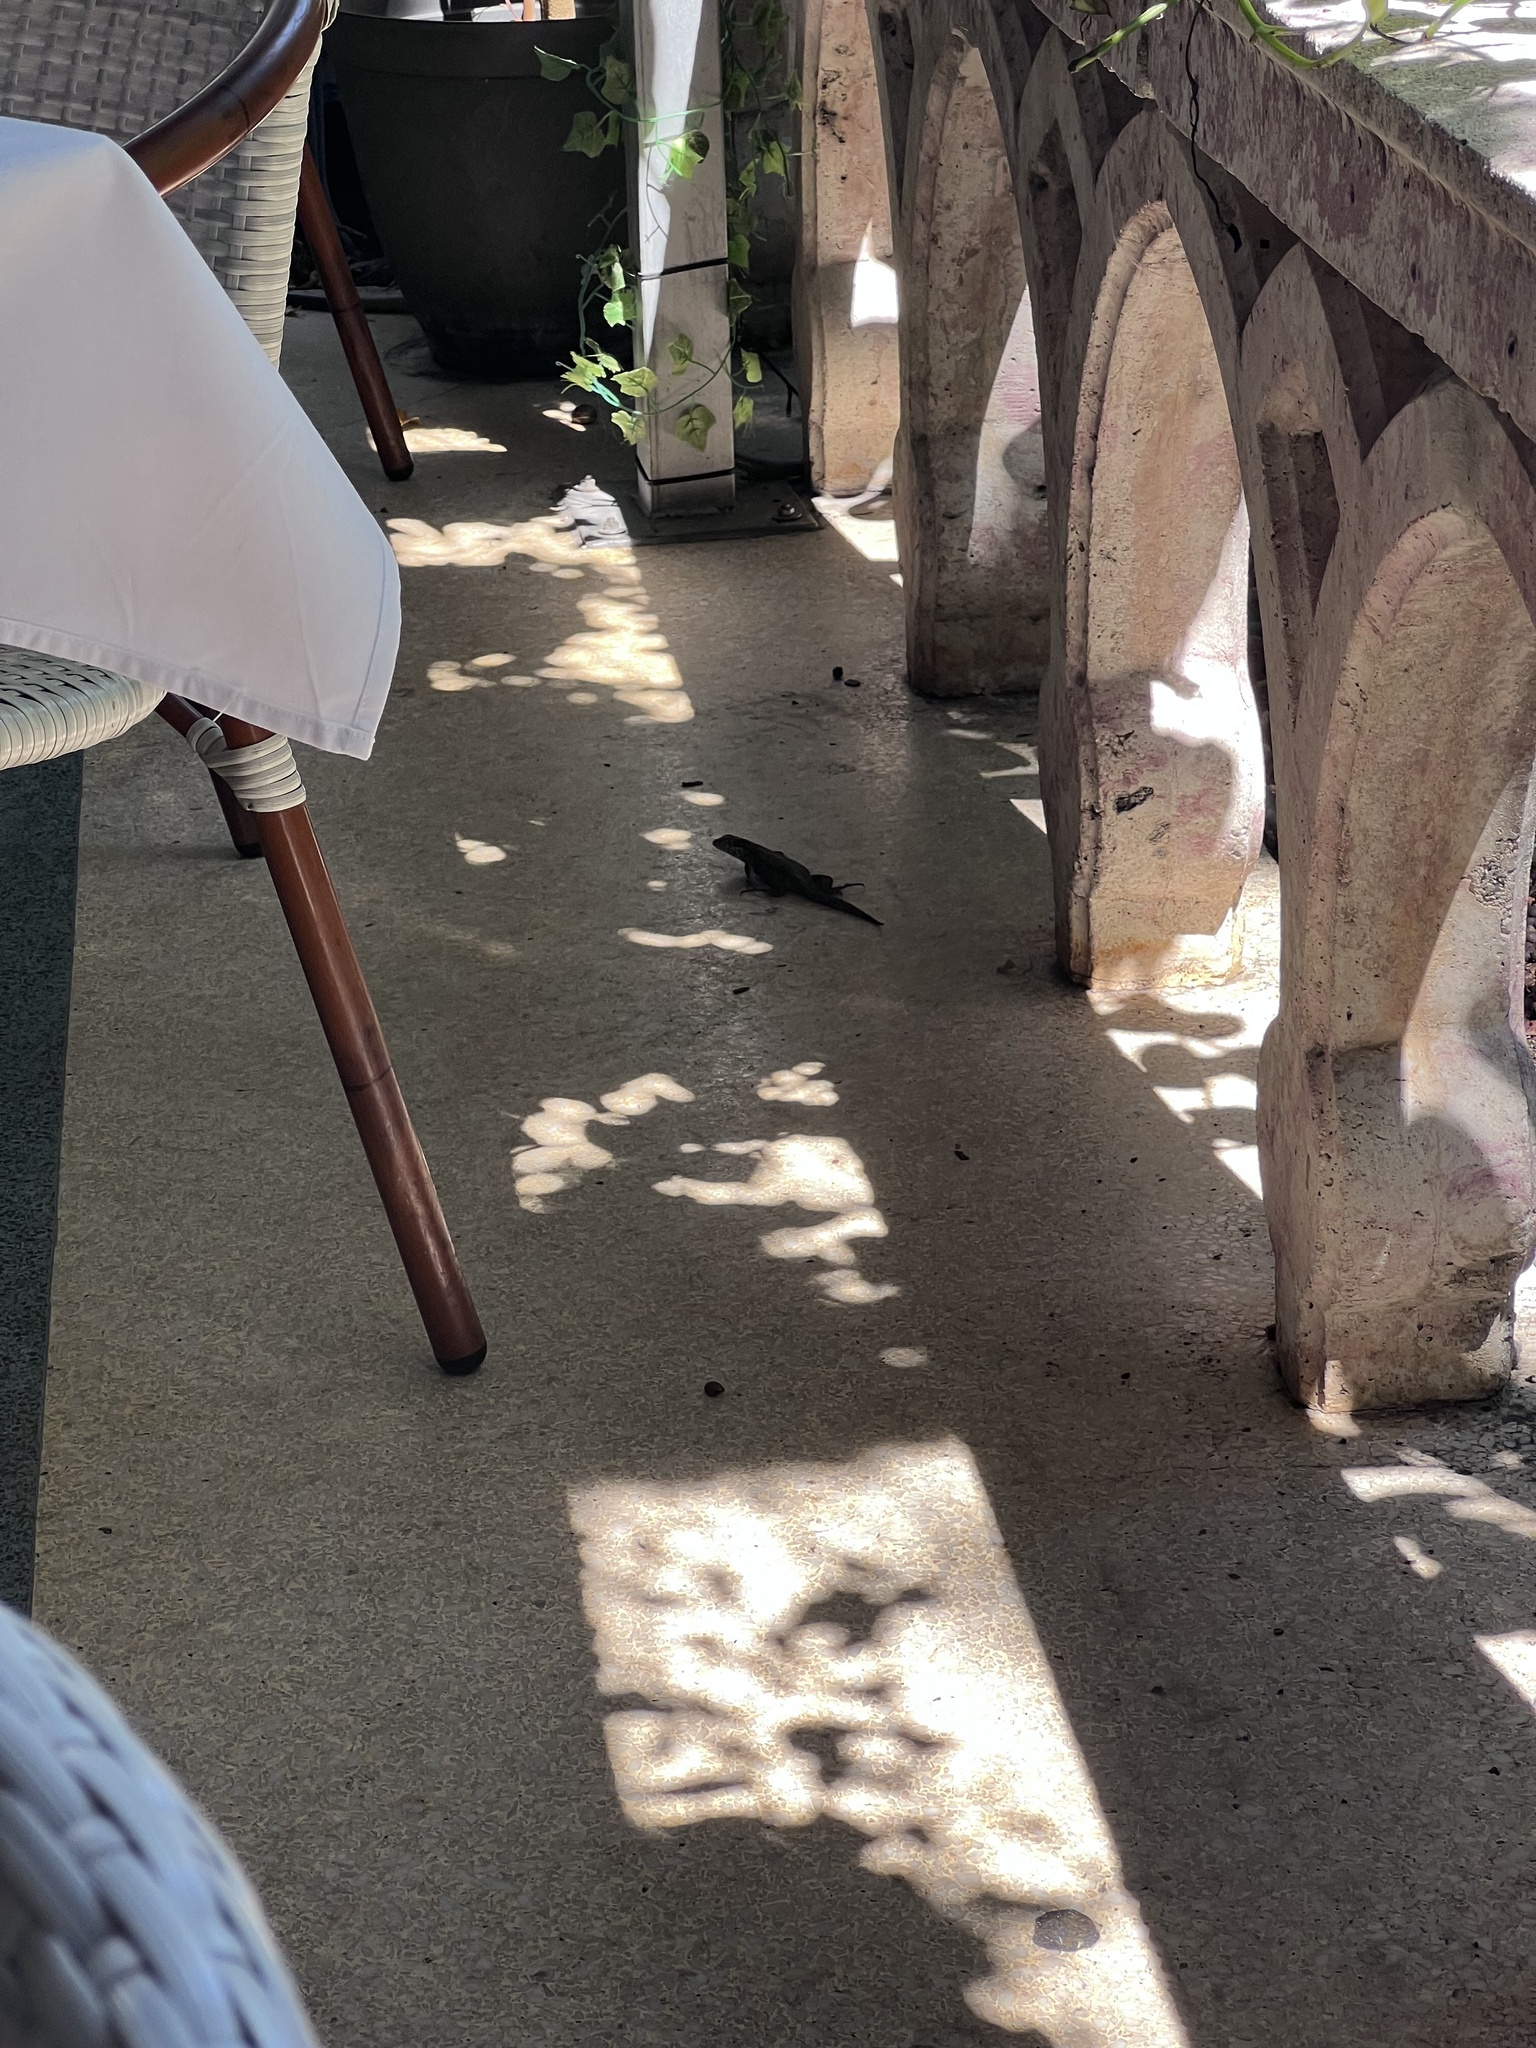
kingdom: Animalia
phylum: Chordata
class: Squamata
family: Leiocephalidae
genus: Leiocephalus
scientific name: Leiocephalus carinatus
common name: Northern curly-tailed lizard
